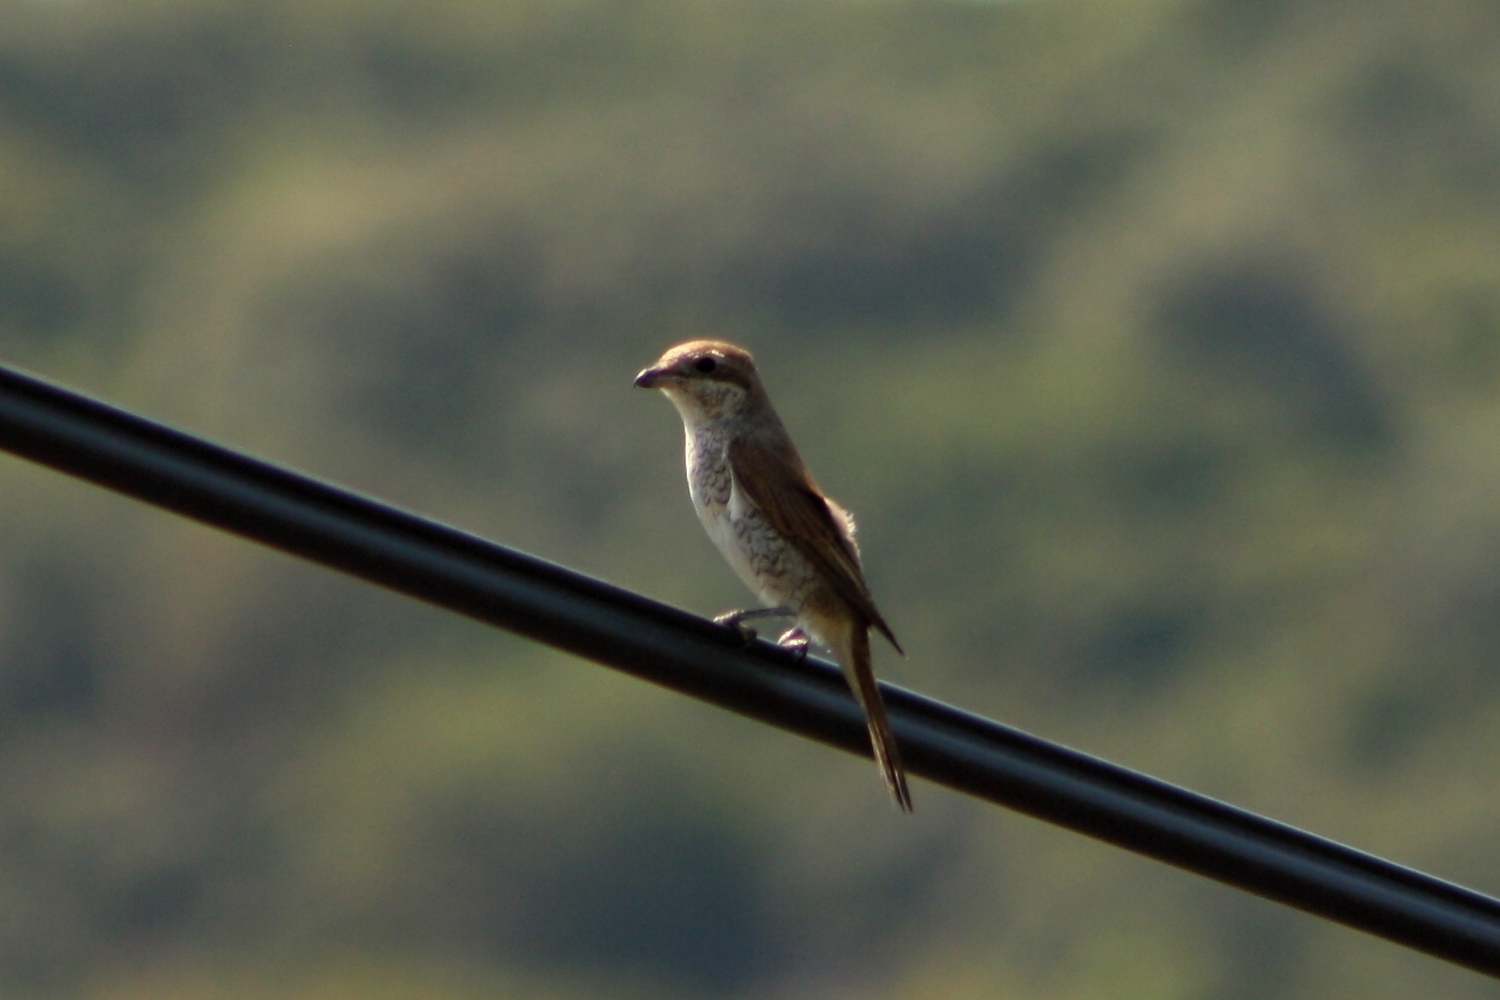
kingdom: Animalia
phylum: Chordata
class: Aves
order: Passeriformes
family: Laniidae
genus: Lanius
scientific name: Lanius collurio
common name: Red-backed shrike
